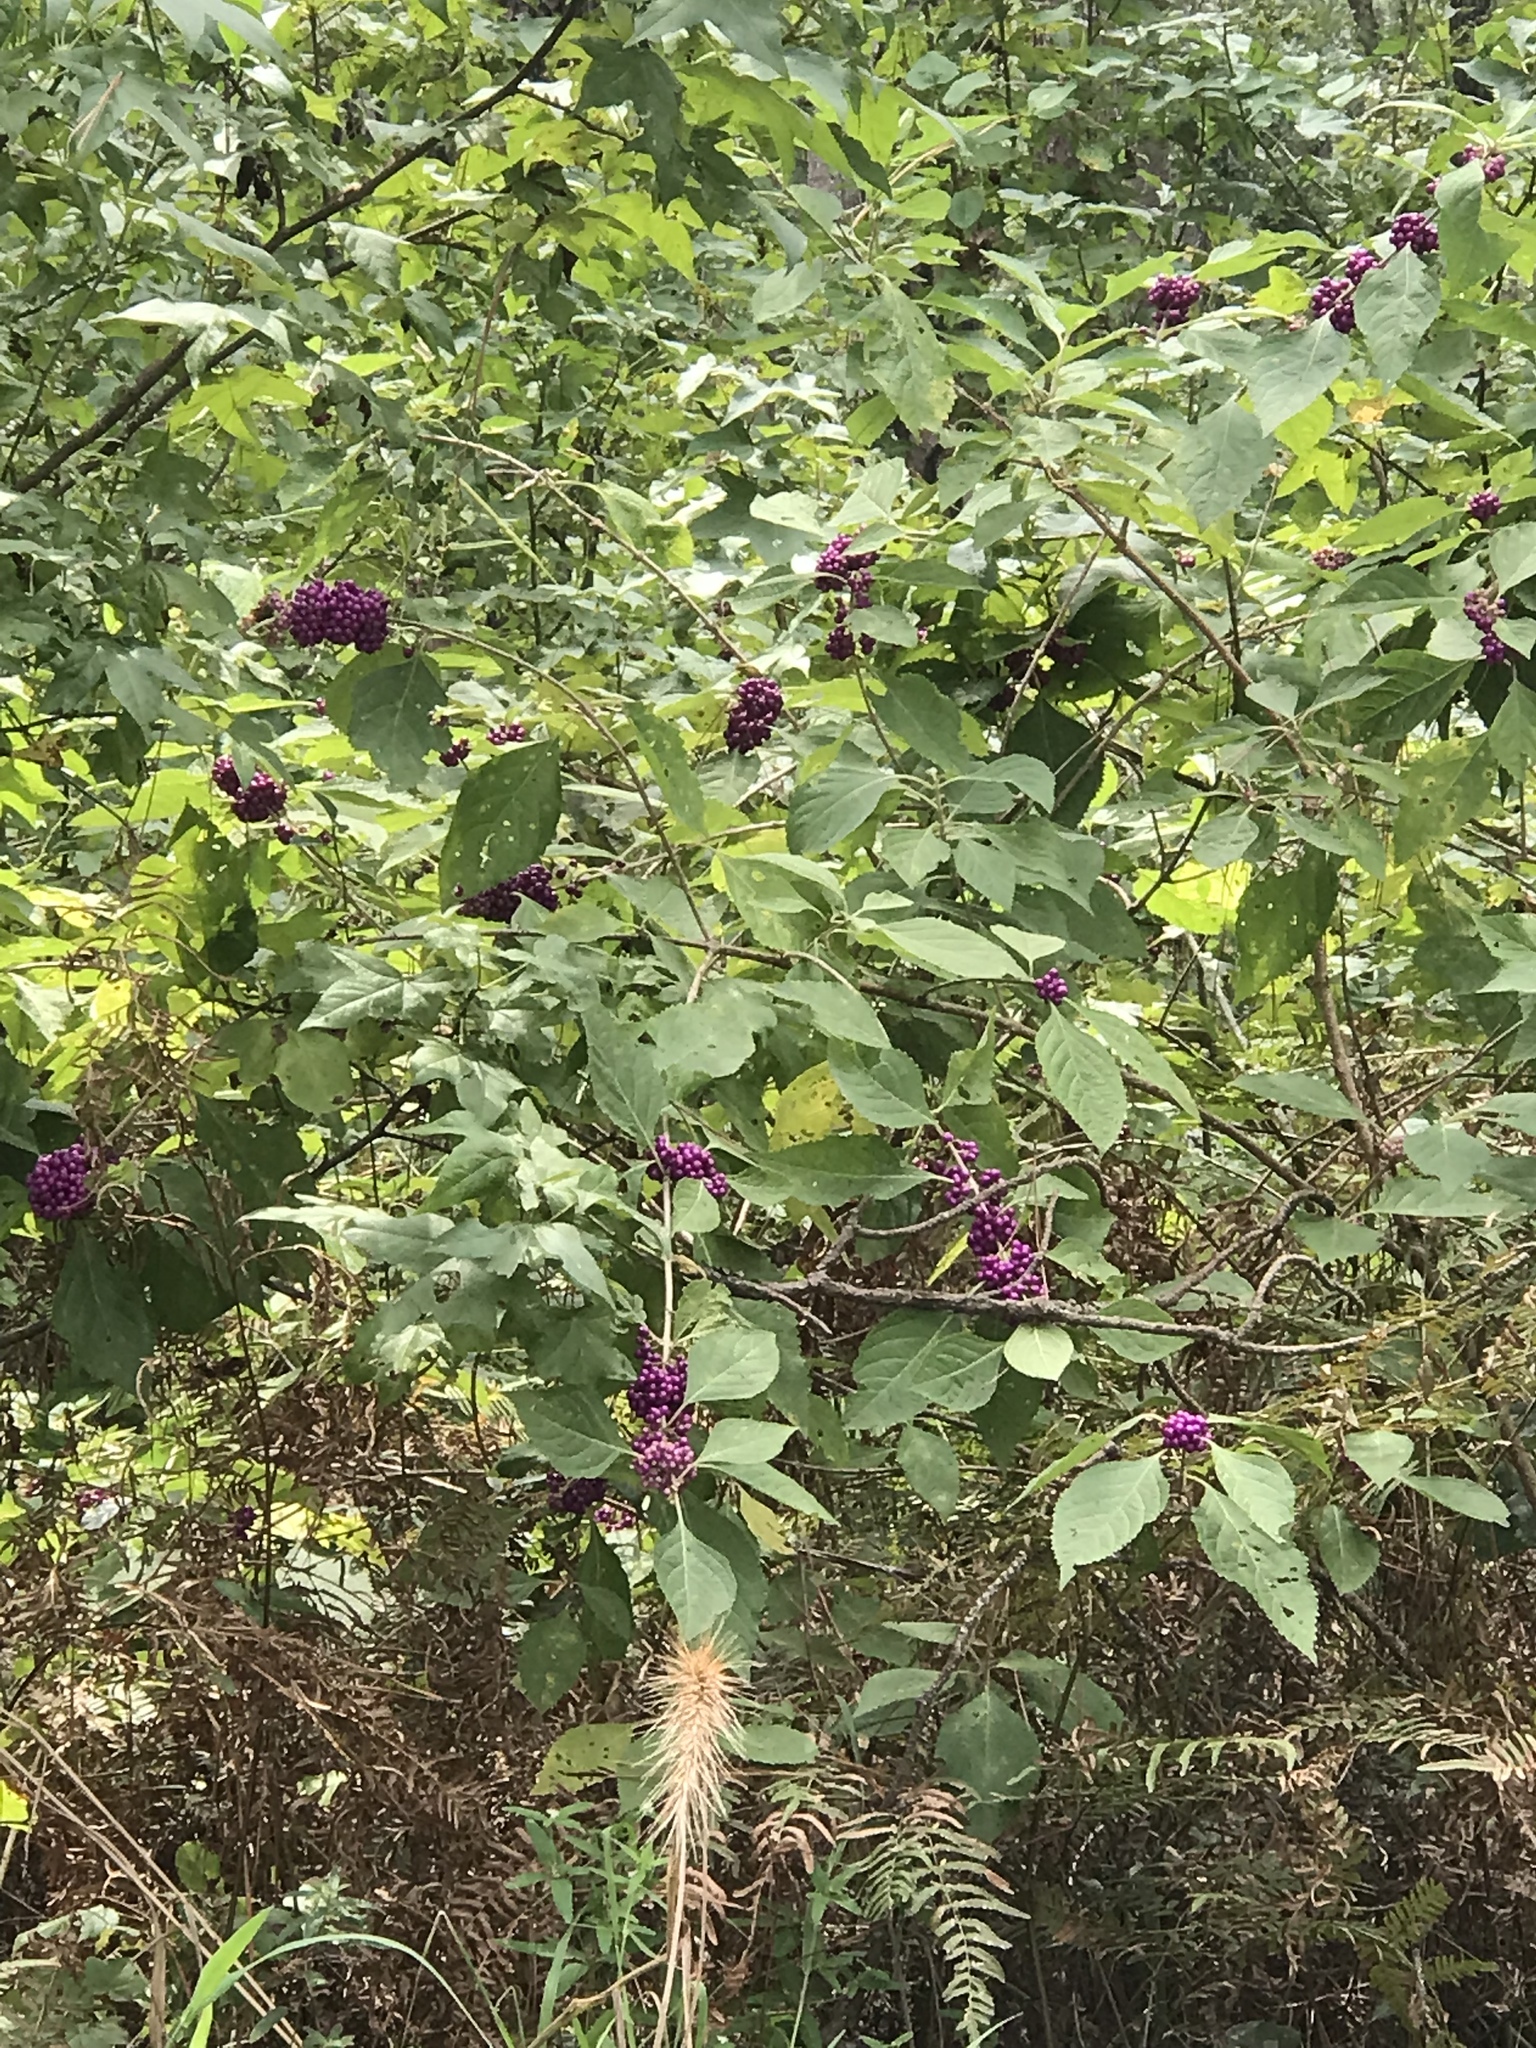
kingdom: Plantae
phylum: Tracheophyta
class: Magnoliopsida
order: Lamiales
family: Lamiaceae
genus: Callicarpa
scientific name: Callicarpa americana
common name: American beautyberry
